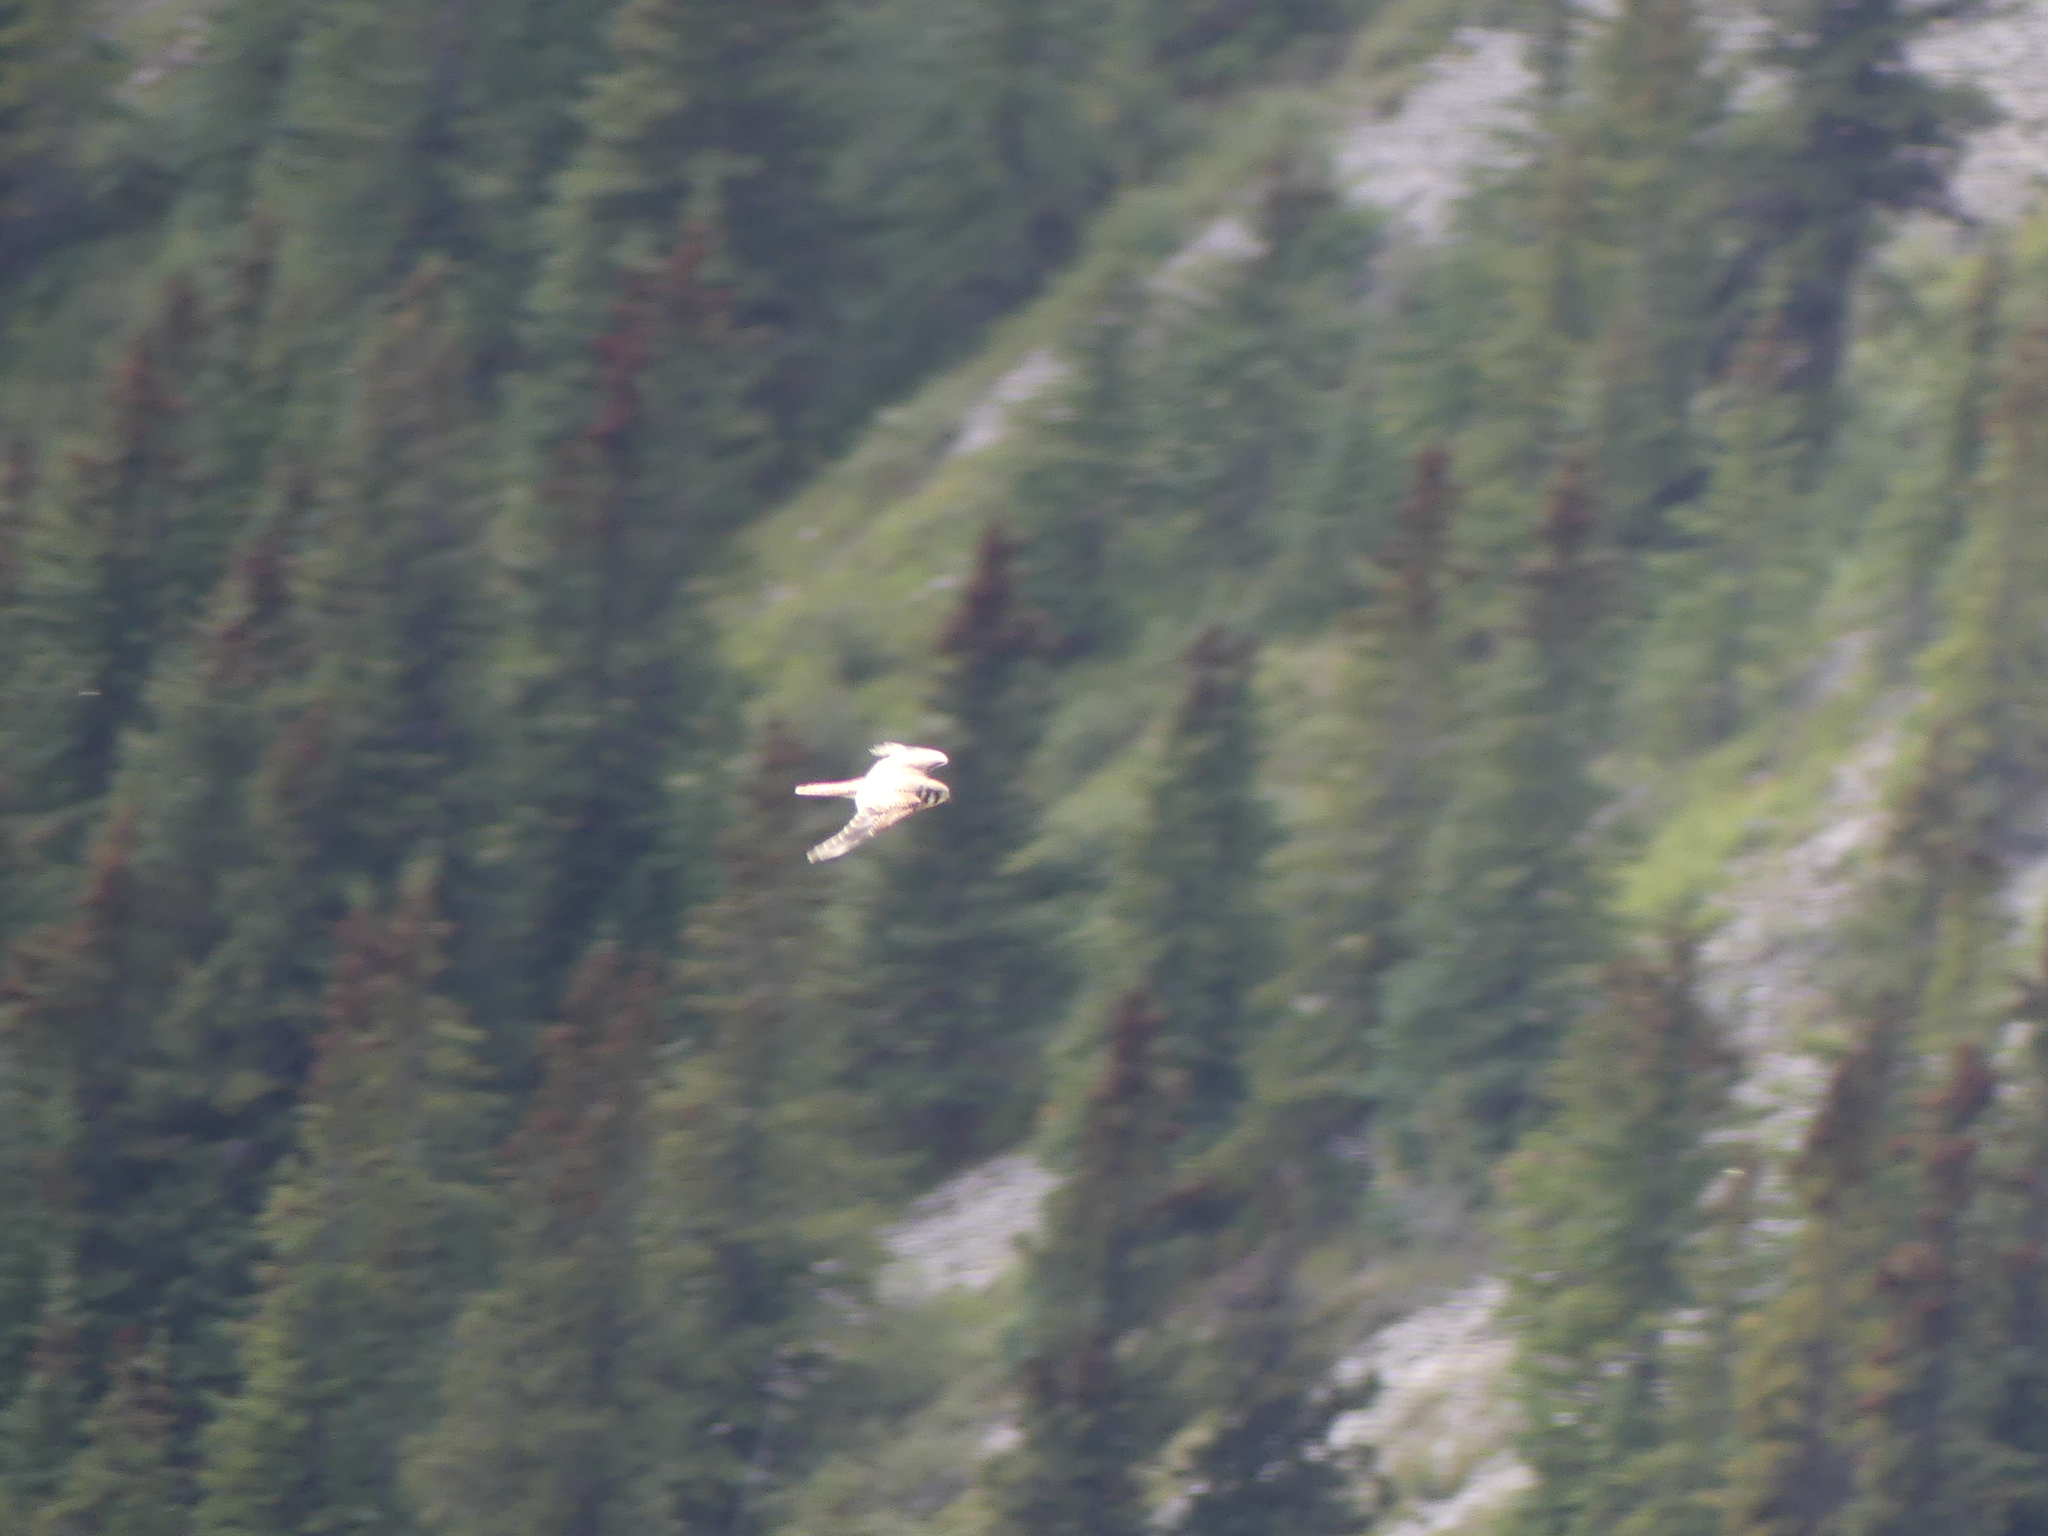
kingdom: Animalia
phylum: Chordata
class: Aves
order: Falconiformes
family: Falconidae
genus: Falco
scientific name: Falco sparverius
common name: American kestrel
